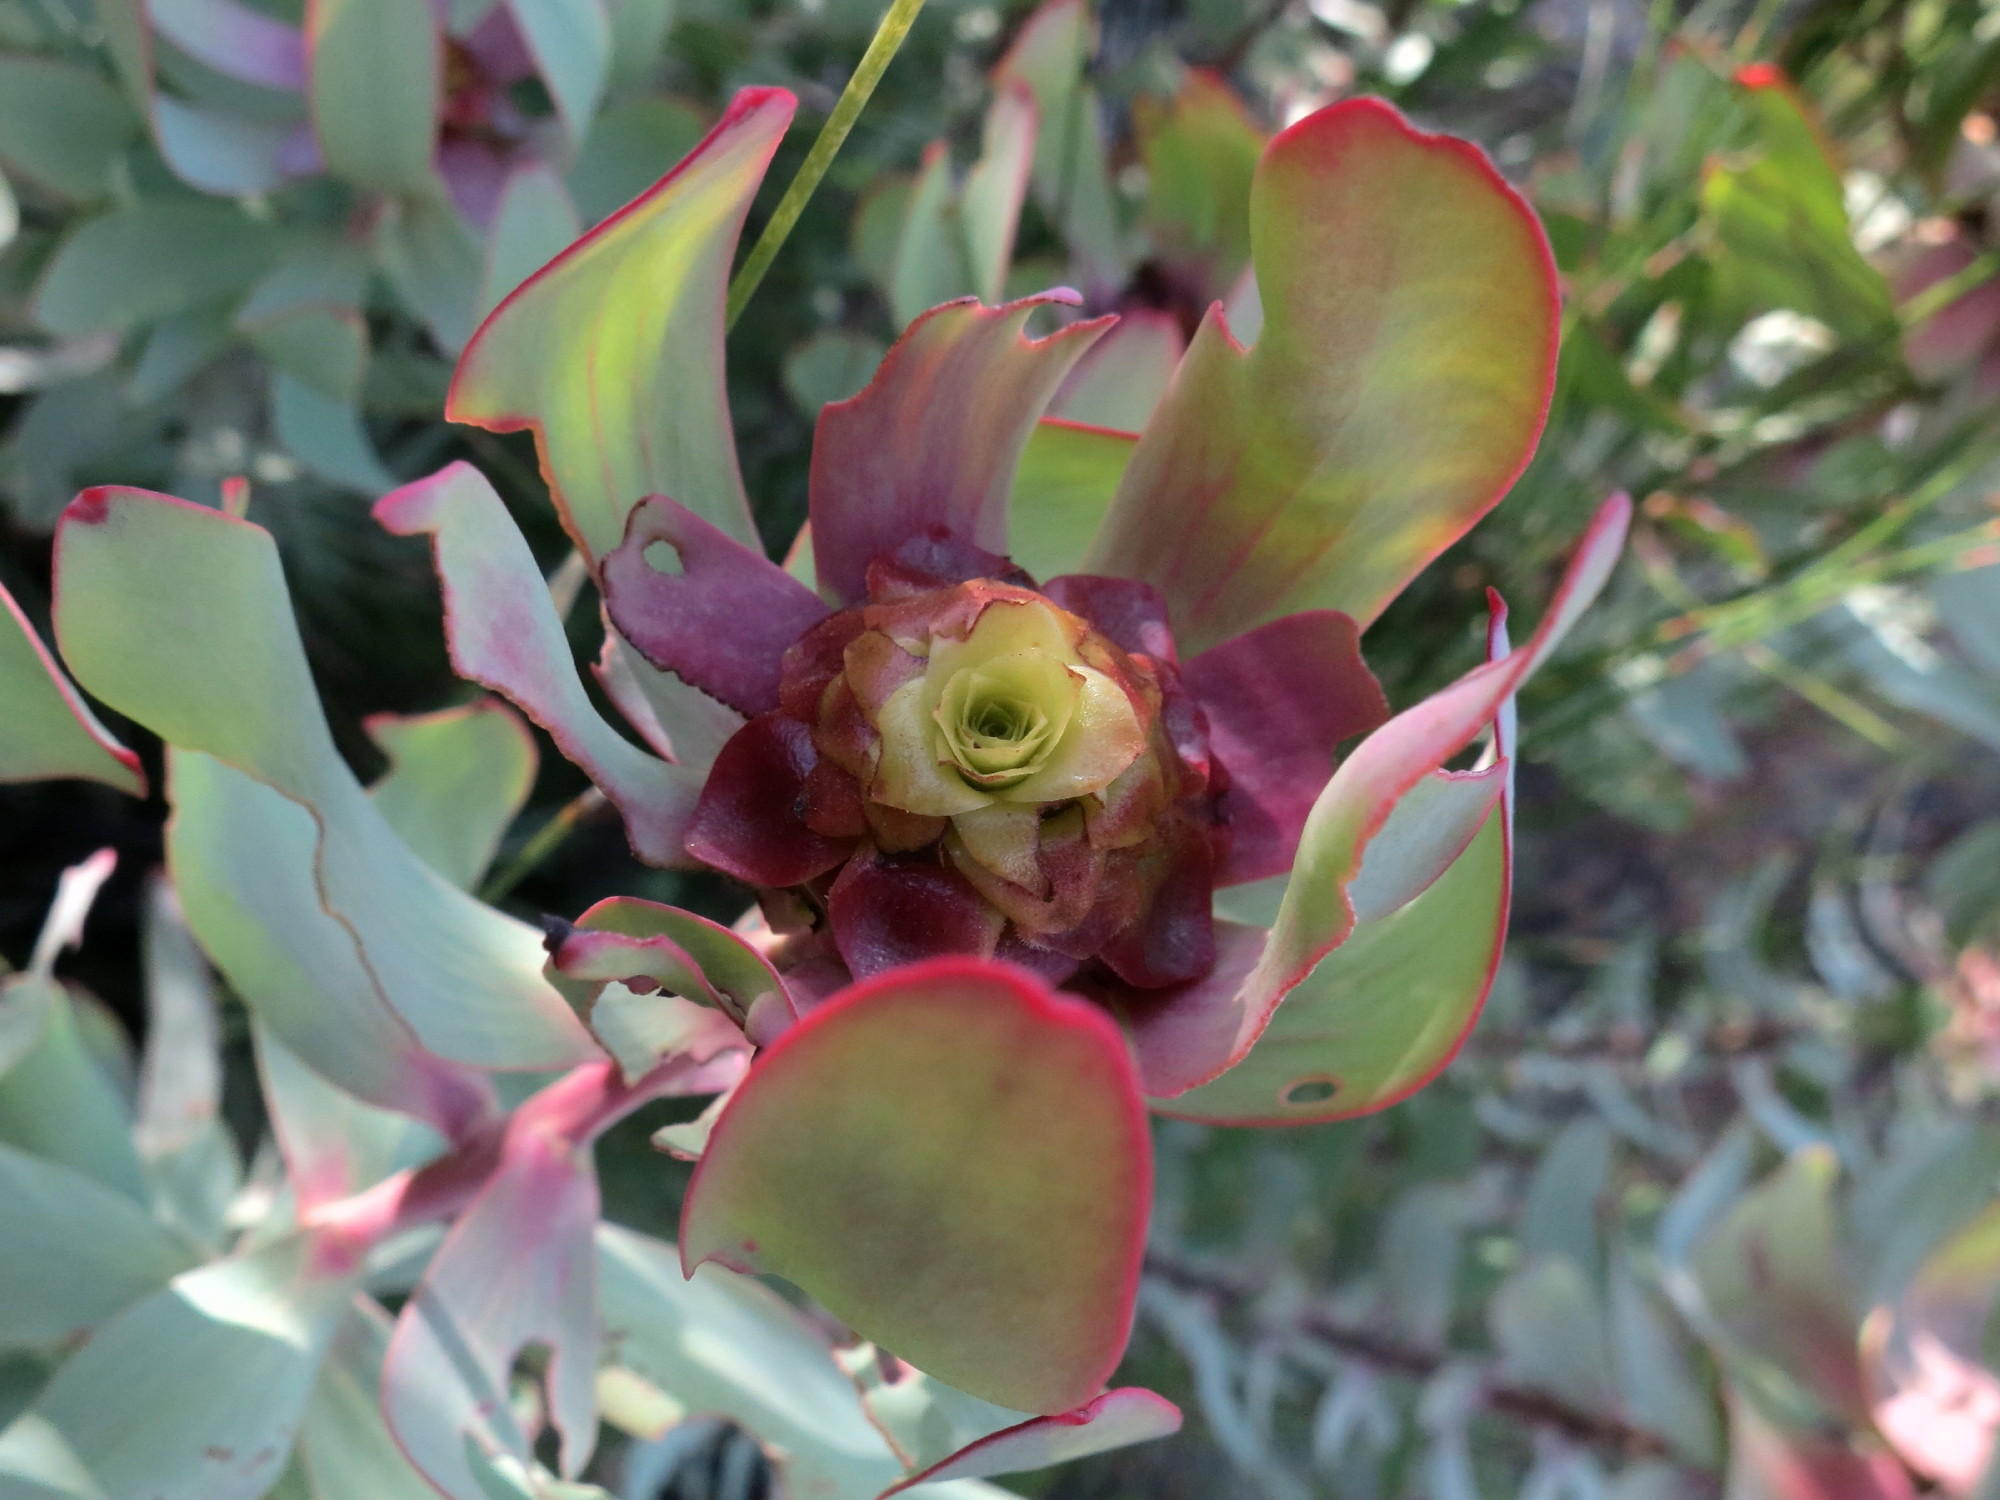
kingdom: Plantae
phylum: Tracheophyta
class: Magnoliopsida
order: Proteales
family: Proteaceae
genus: Leucadendron
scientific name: Leucadendron tinctum
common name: Spicy conebush
